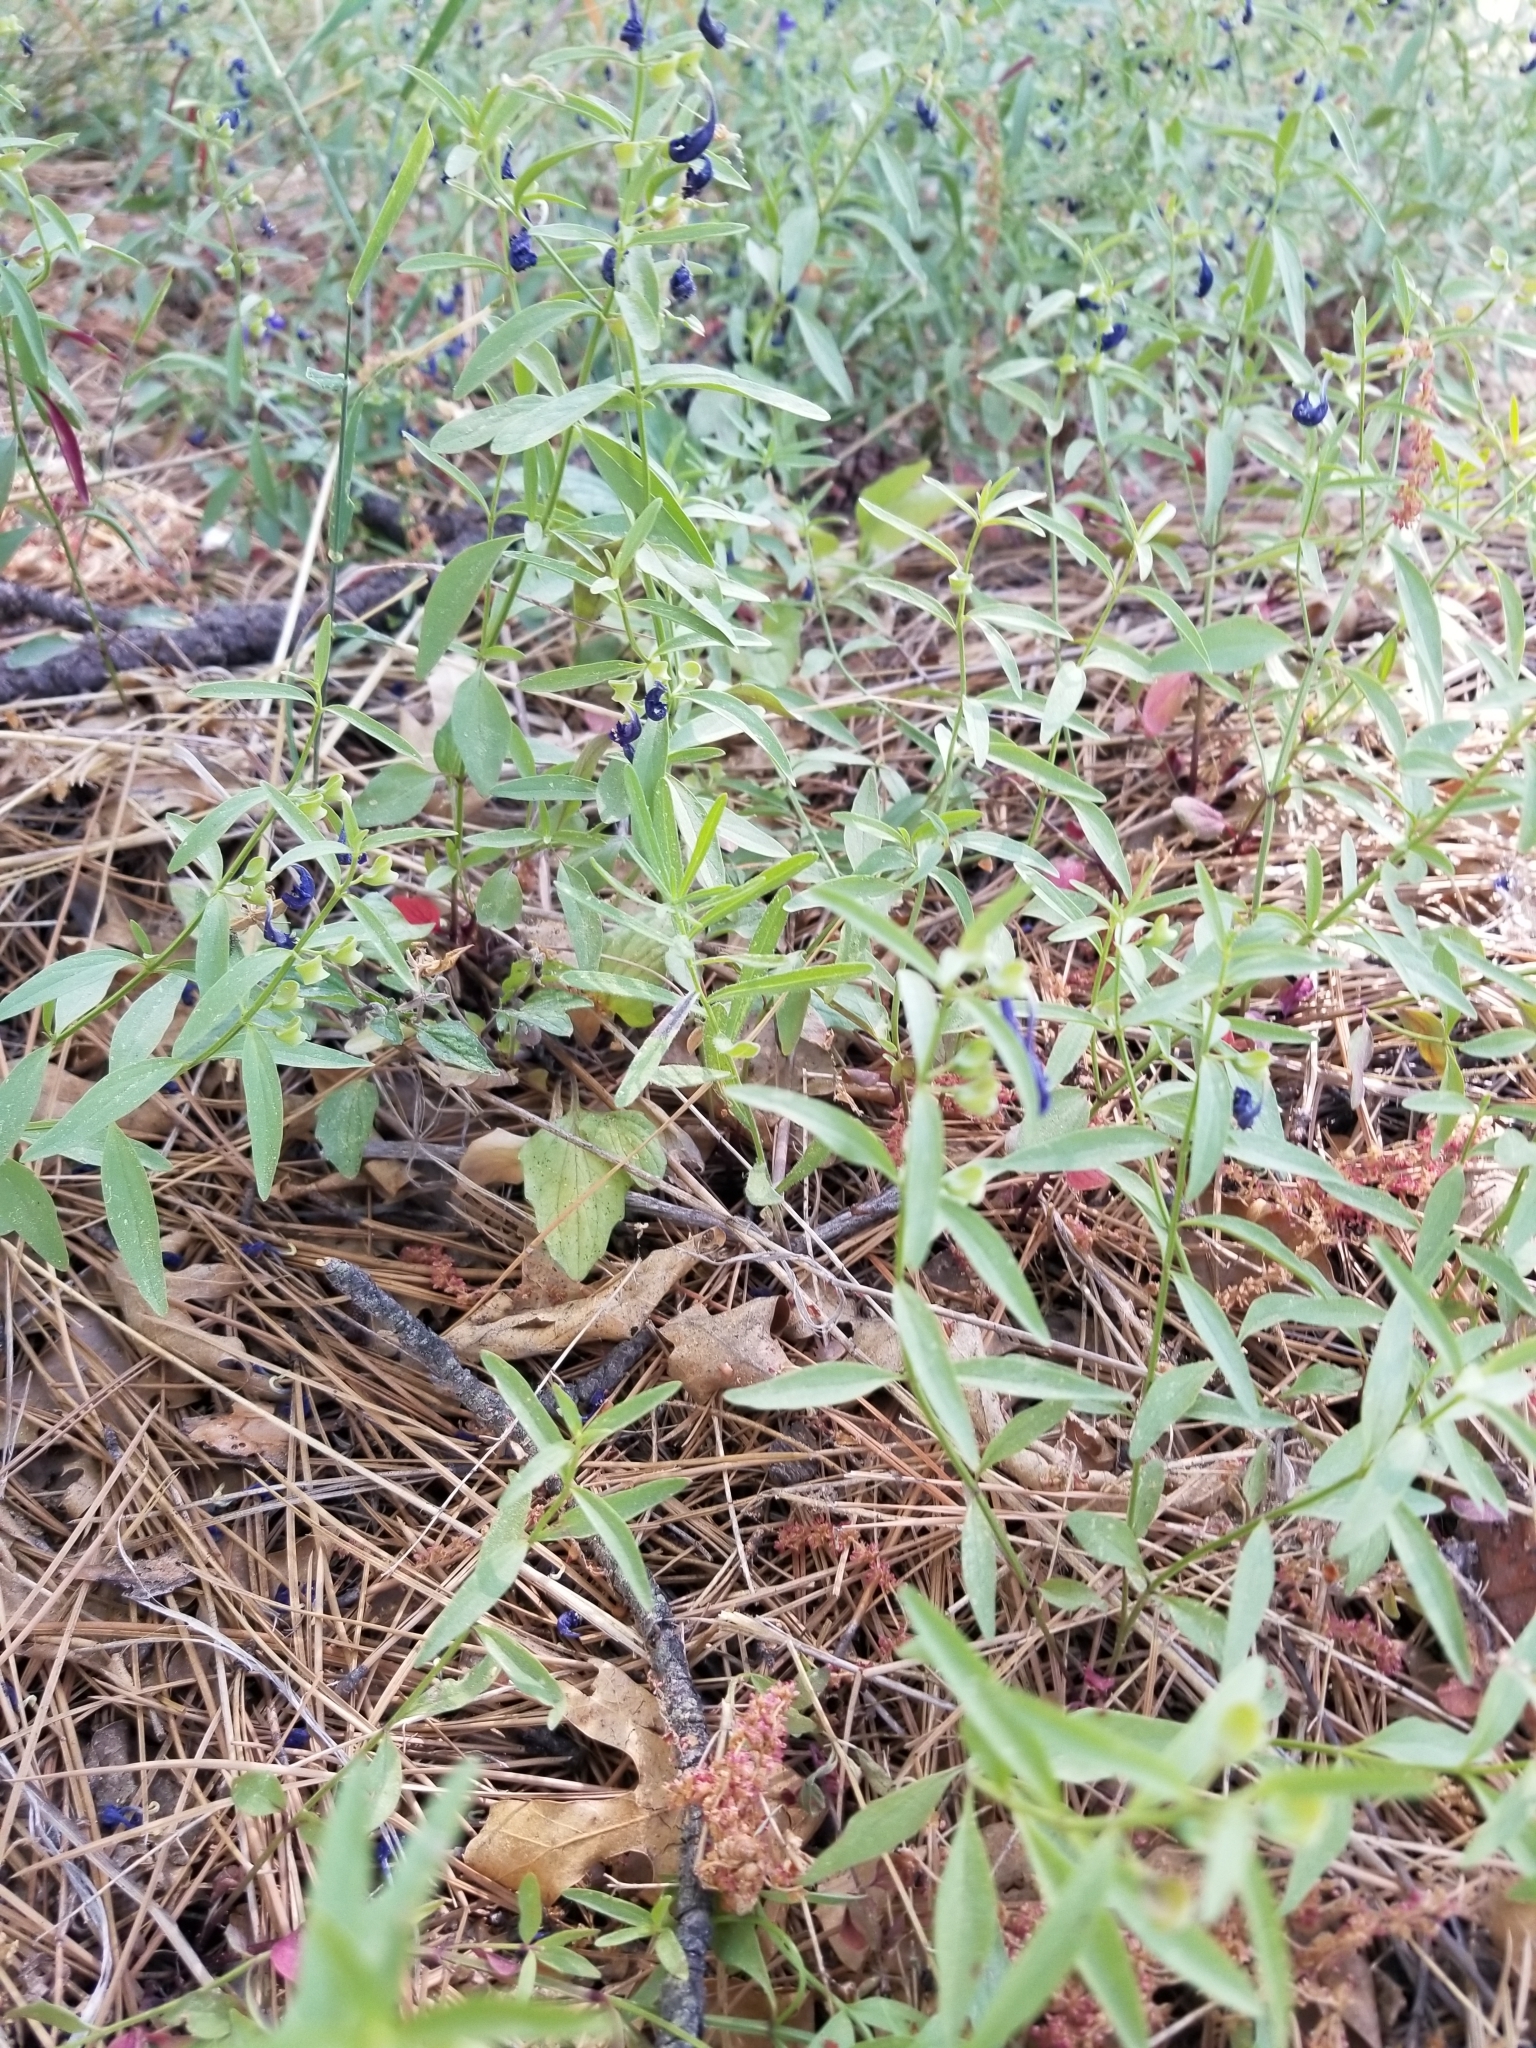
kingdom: Plantae
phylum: Tracheophyta
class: Magnoliopsida
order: Lamiales
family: Lamiaceae
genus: Scutellaria
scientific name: Scutellaria siphocampyloides
